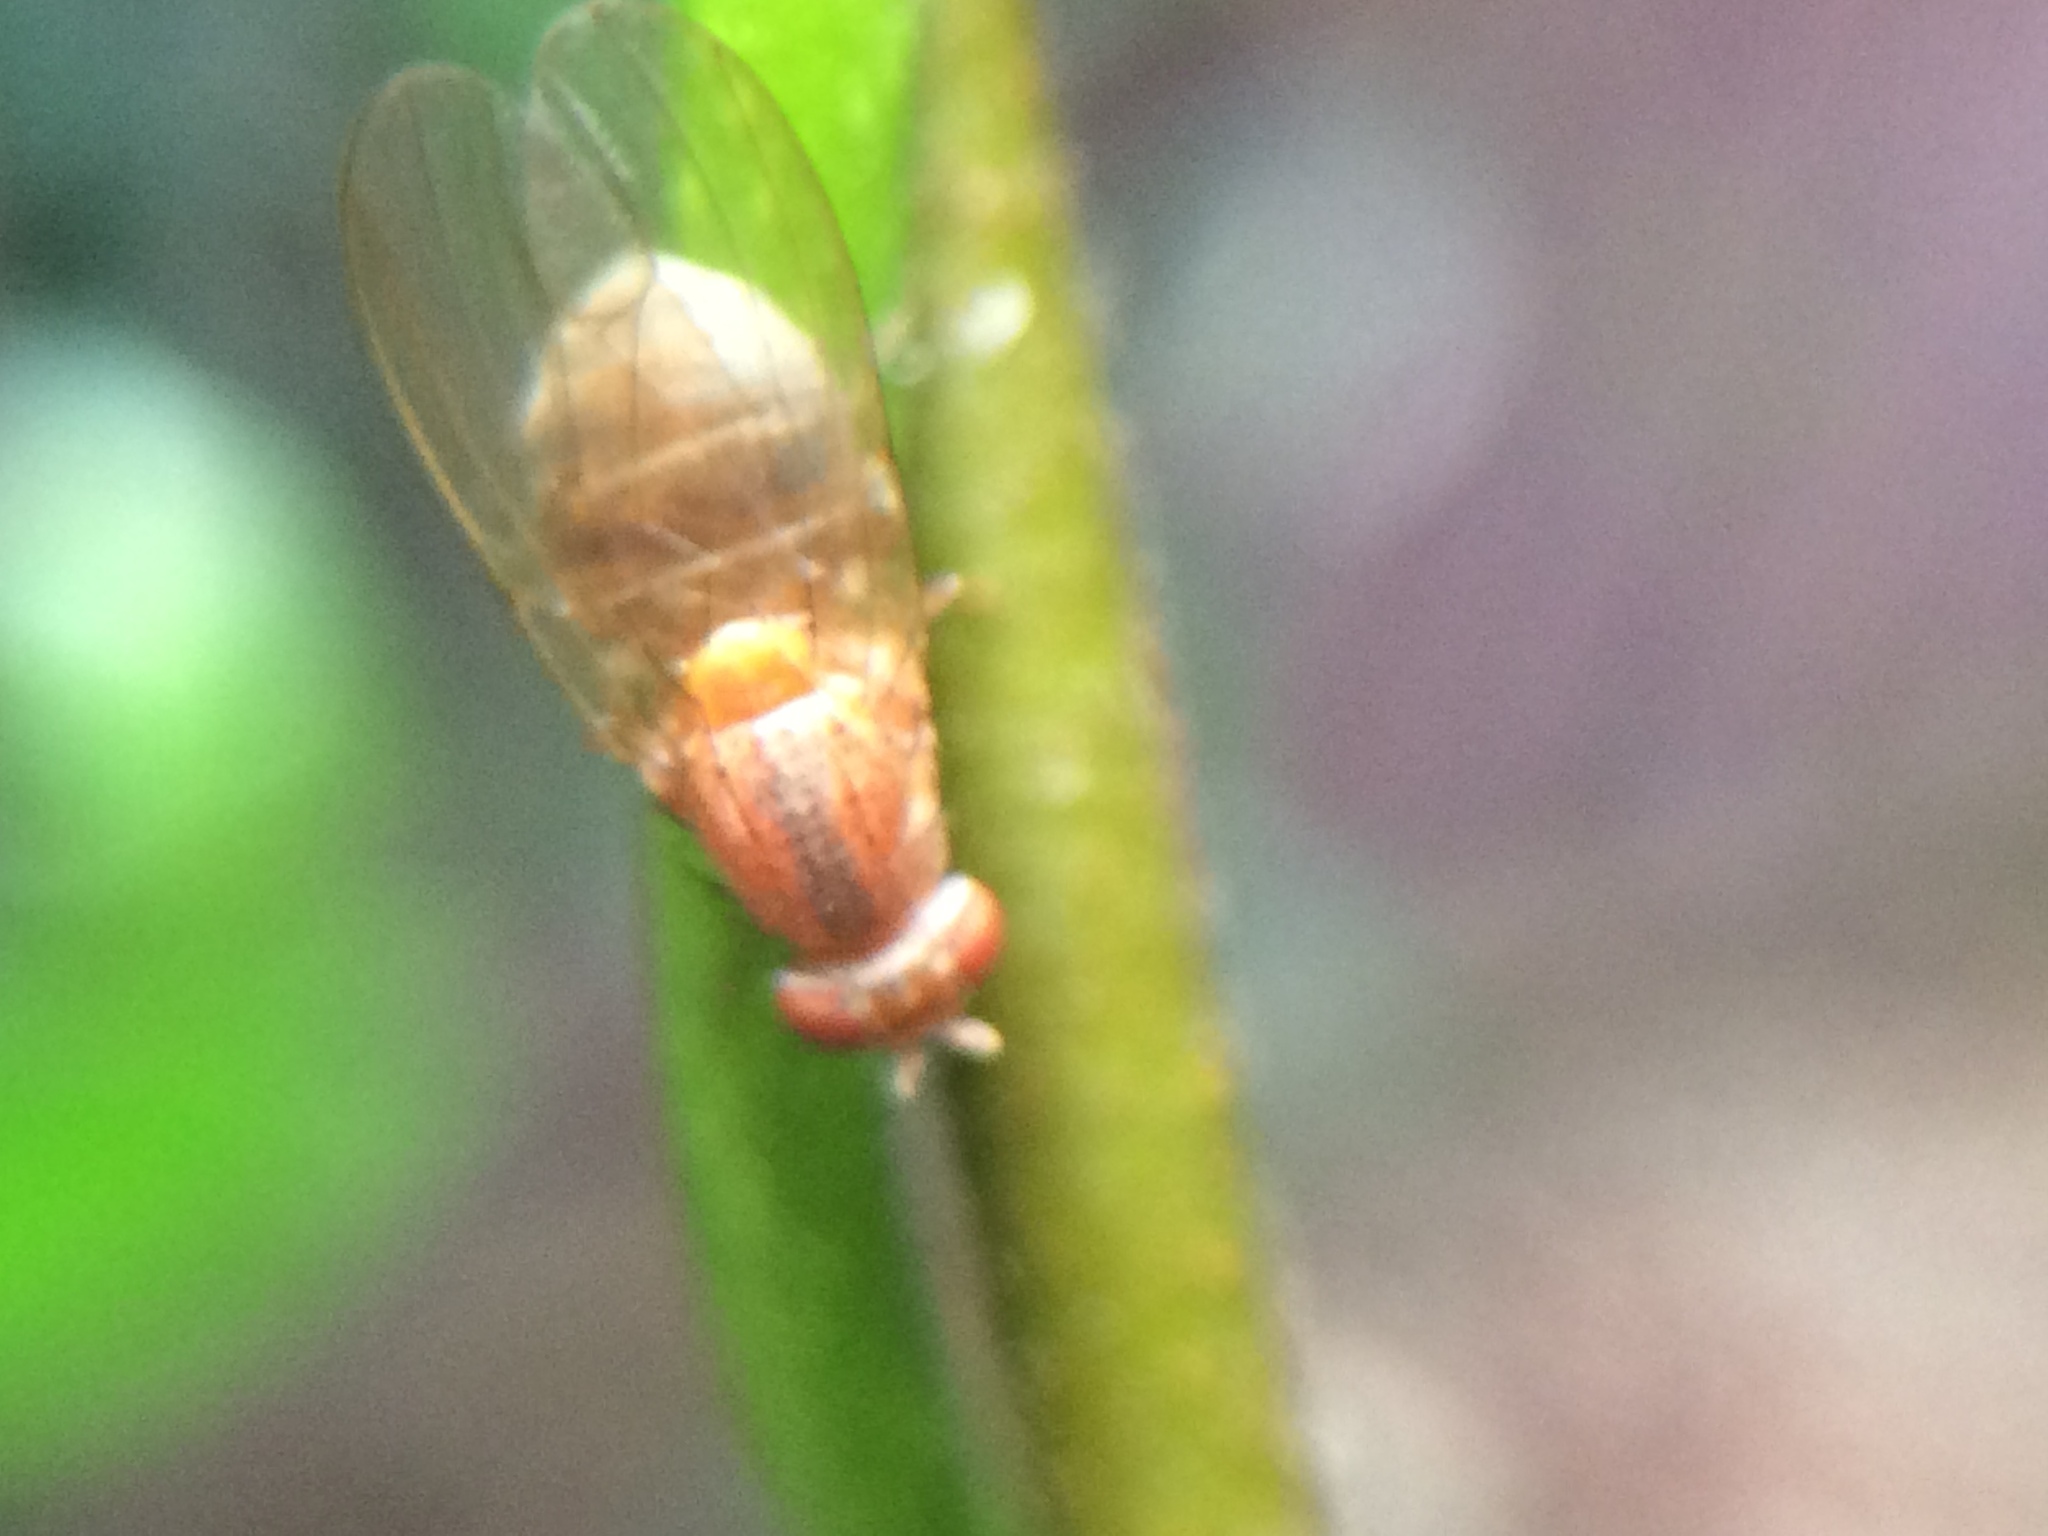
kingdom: Animalia
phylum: Arthropoda
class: Insecta
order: Diptera
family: Lauxaniidae
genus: Minettia
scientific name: Minettia flaveola
